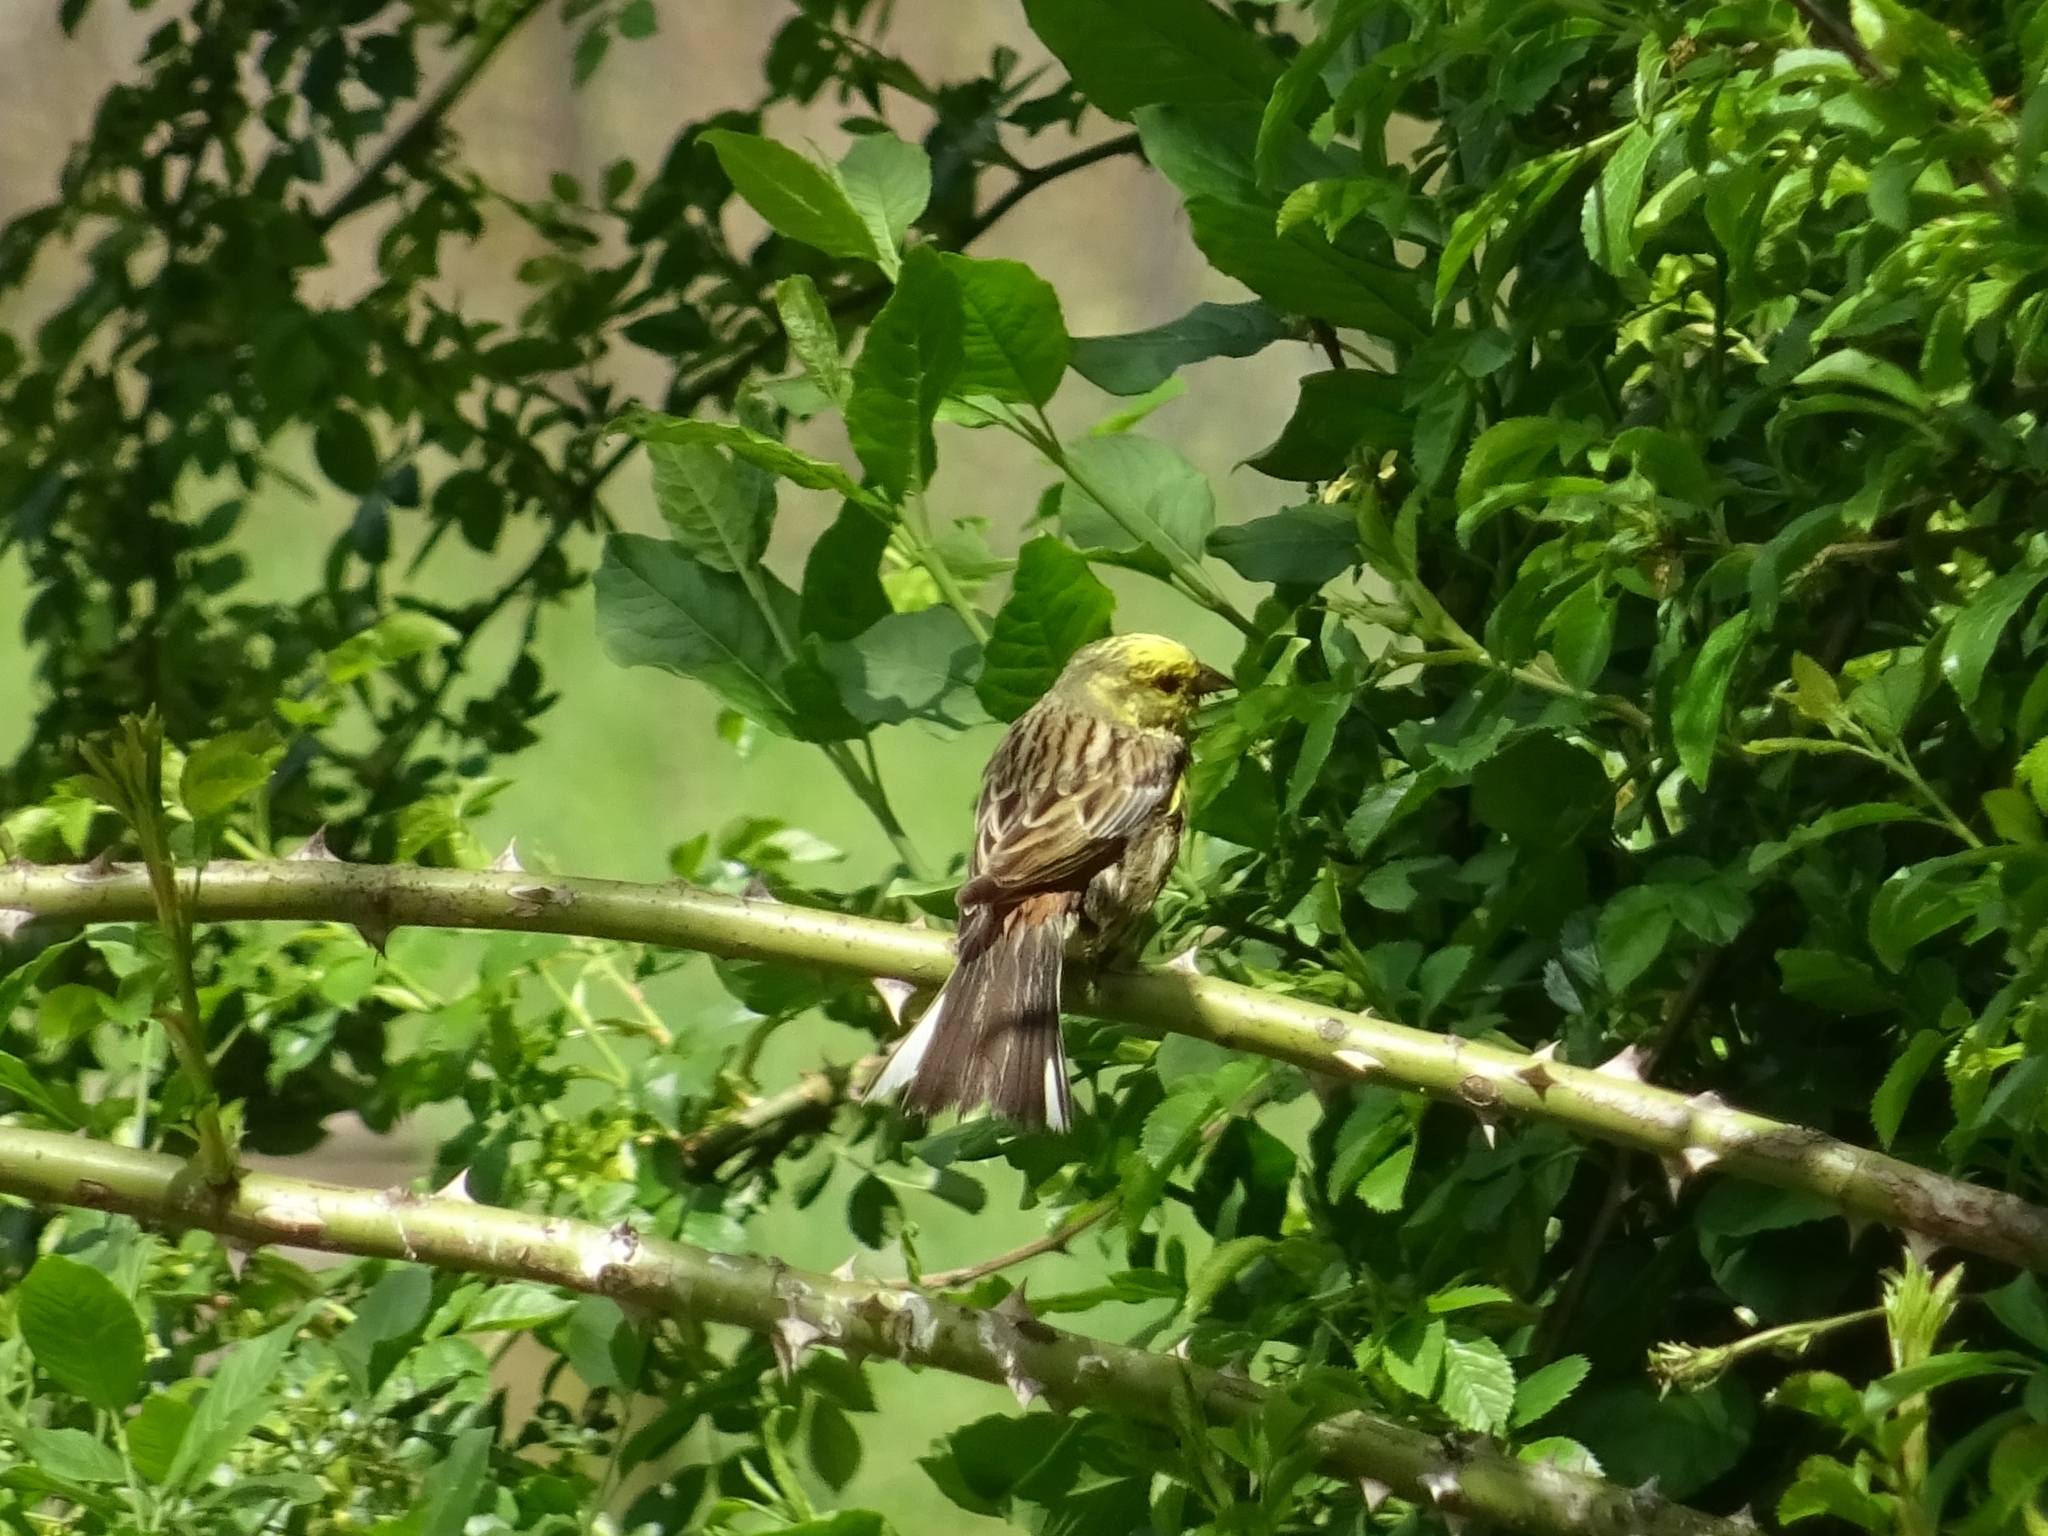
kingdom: Animalia
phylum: Chordata
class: Aves
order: Passeriformes
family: Emberizidae
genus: Emberiza
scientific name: Emberiza citrinella
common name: Yellowhammer
